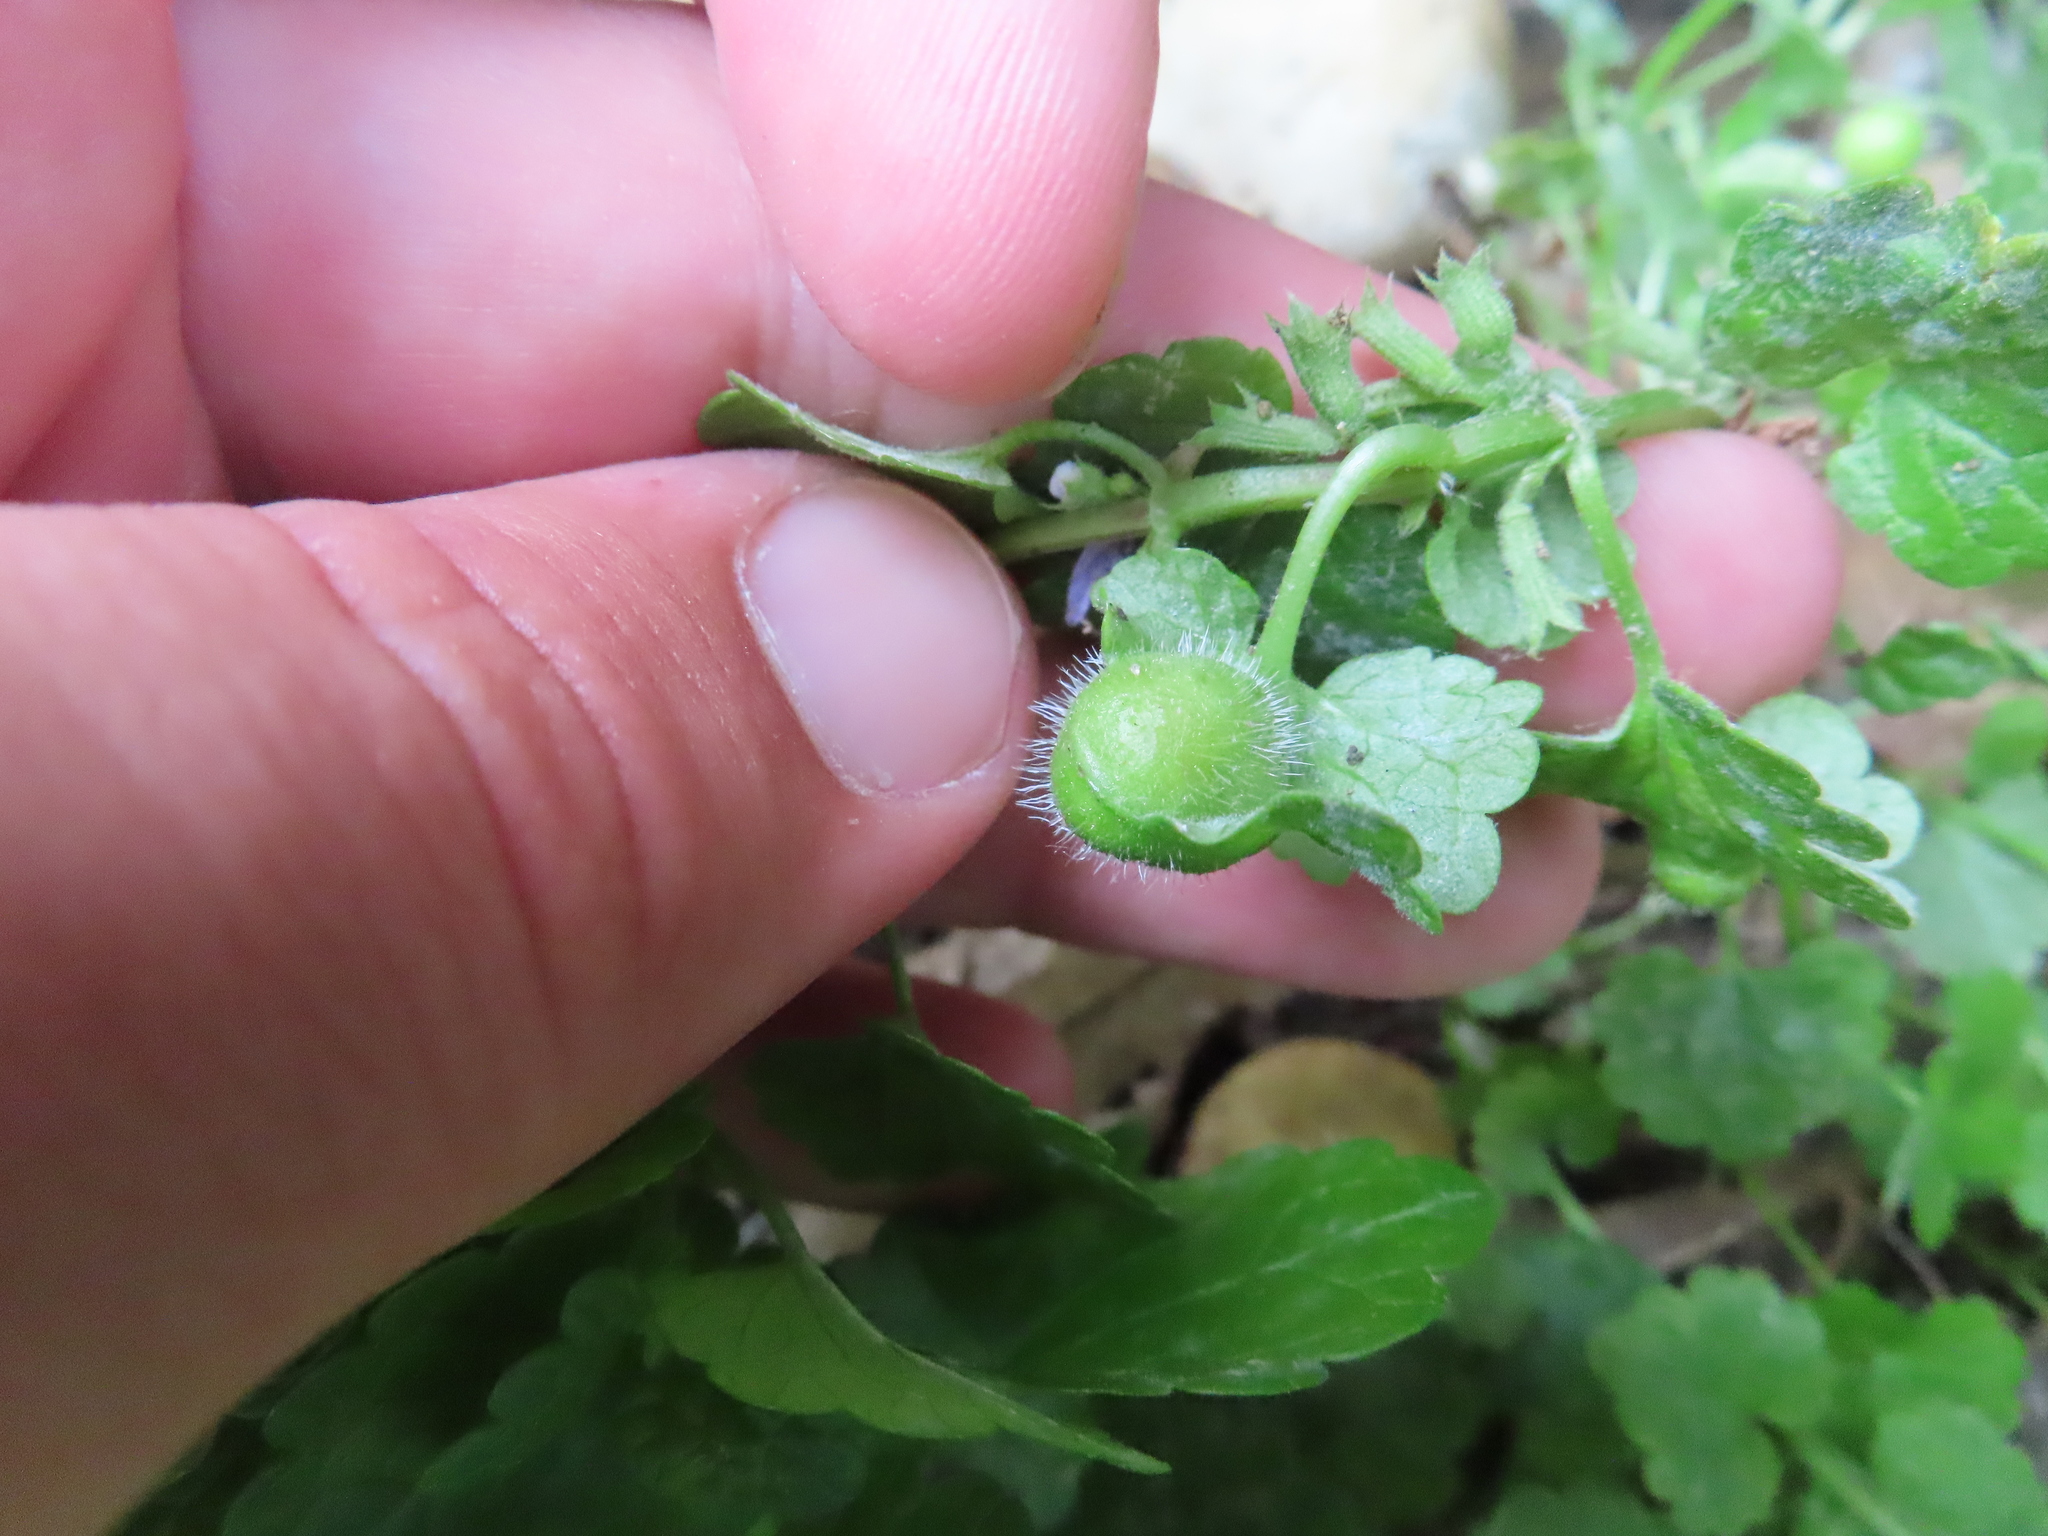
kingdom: Animalia
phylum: Arthropoda
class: Insecta
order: Hymenoptera
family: Cynipidae
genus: Liposthenes
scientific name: Liposthenes glechomae
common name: Gall wasp
